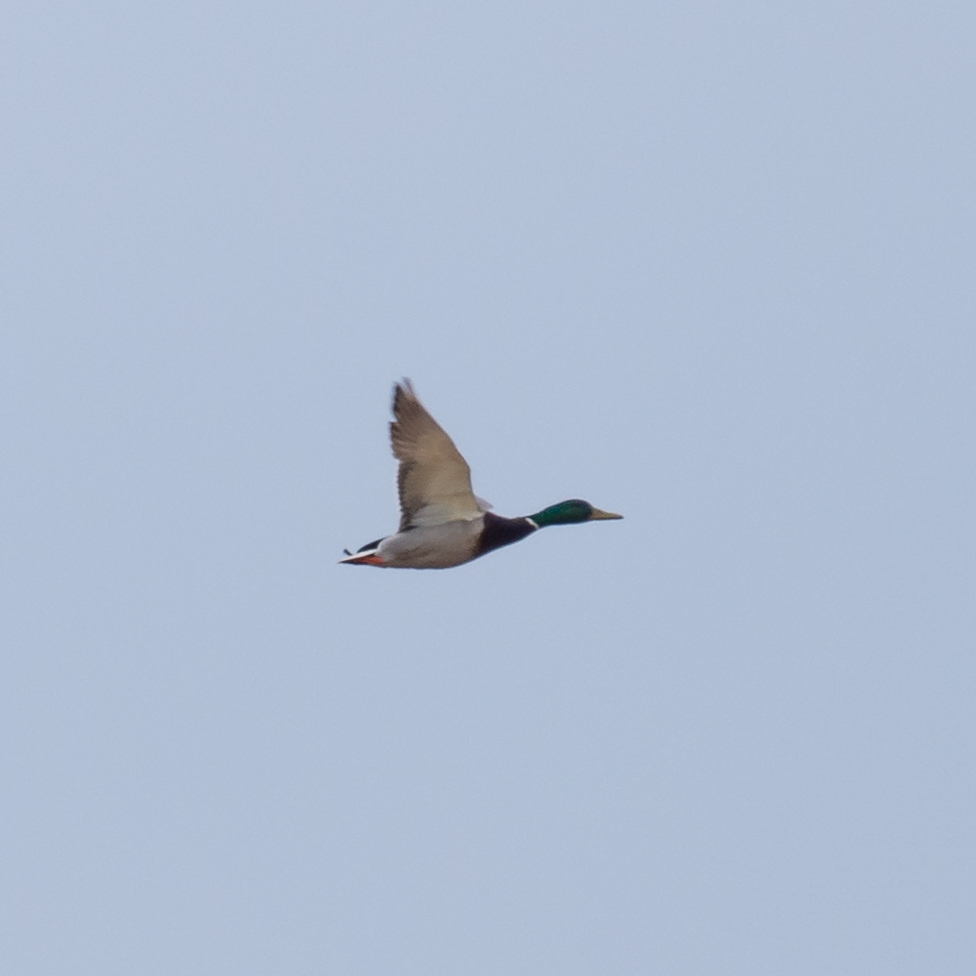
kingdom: Animalia
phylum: Chordata
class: Aves
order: Anseriformes
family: Anatidae
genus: Anas
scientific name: Anas platyrhynchos
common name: Mallard
